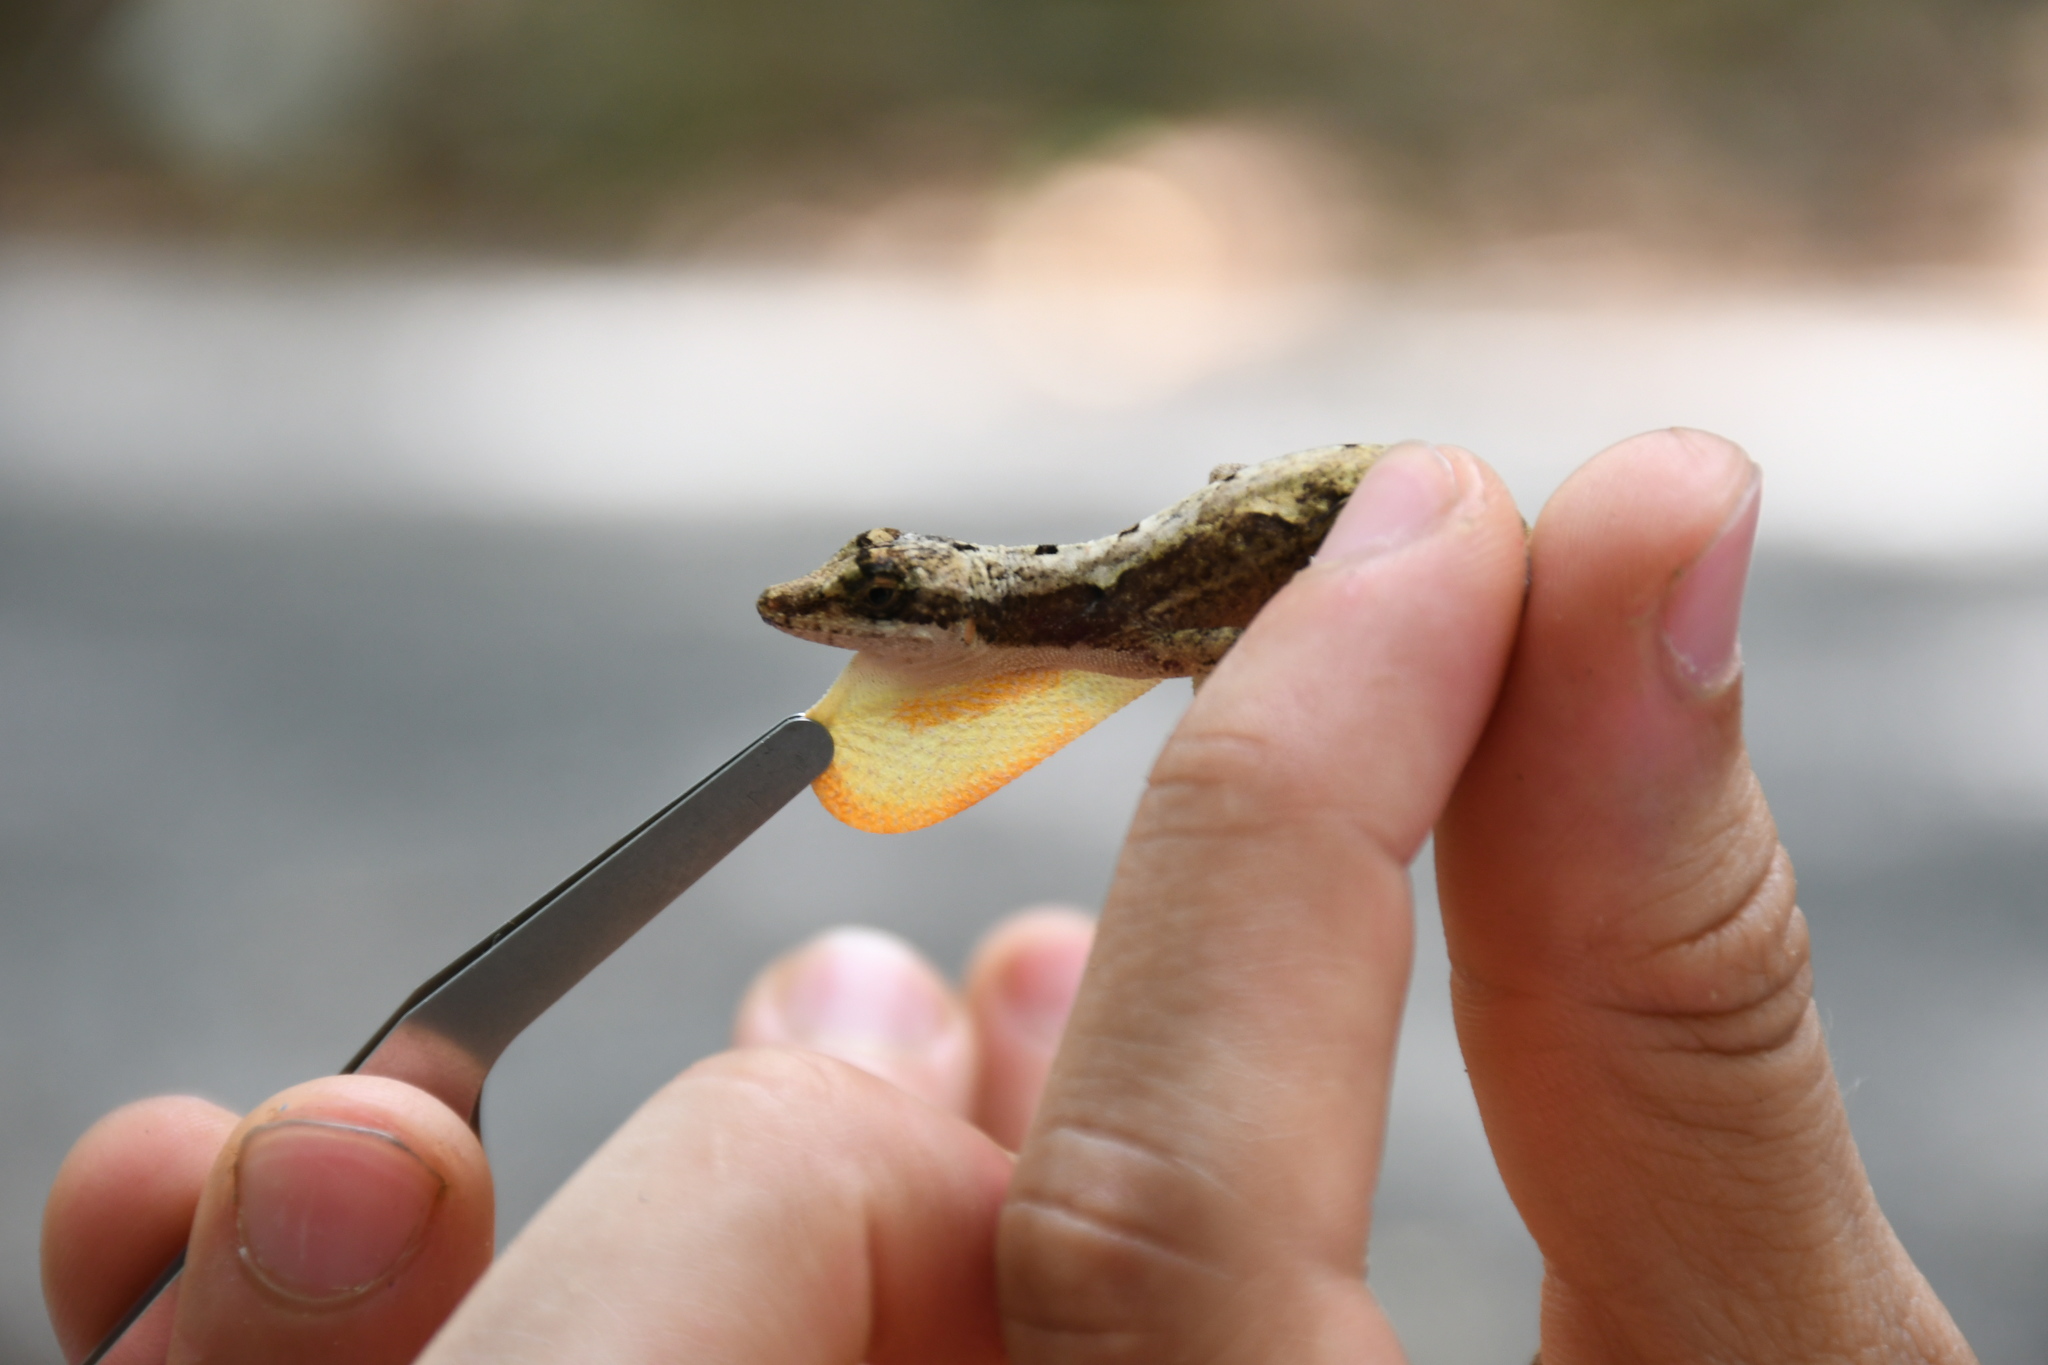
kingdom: Animalia
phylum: Chordata
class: Squamata
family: Dactyloidae
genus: Anolis
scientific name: Anolis rodriguezii
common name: Middle american smooth anole
